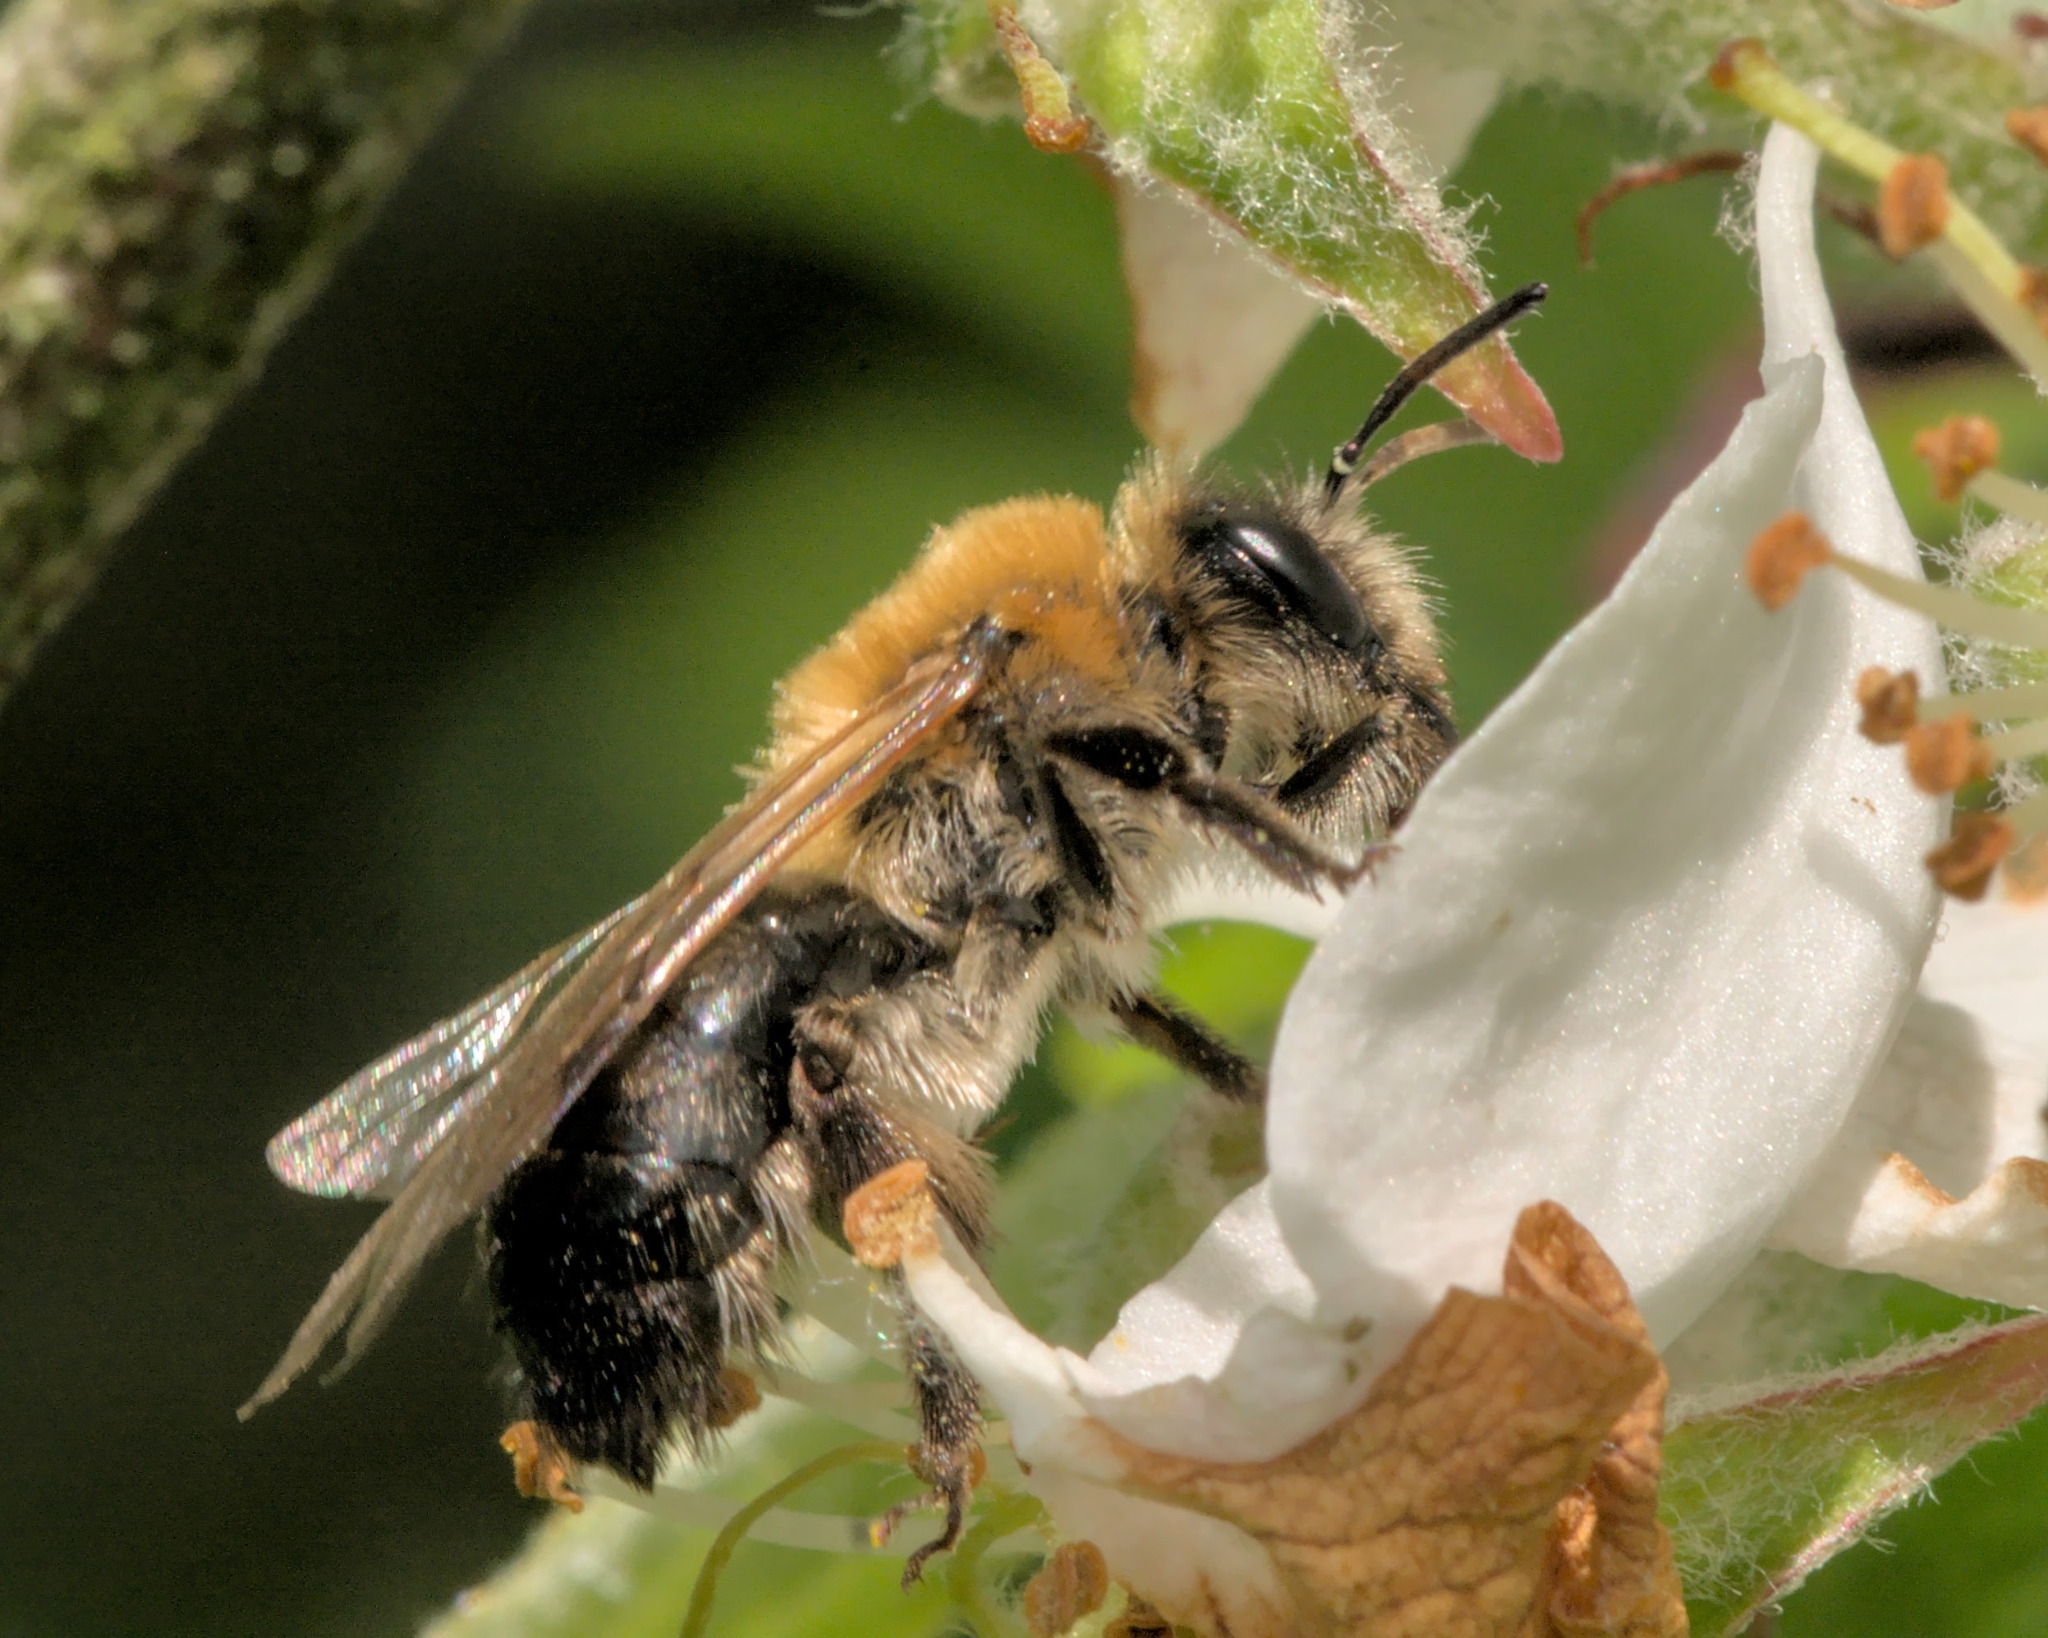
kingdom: Animalia
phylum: Arthropoda
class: Insecta
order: Hymenoptera
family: Andrenidae
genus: Andrena
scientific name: Andrena nitida
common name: Grey-patched mining bee
